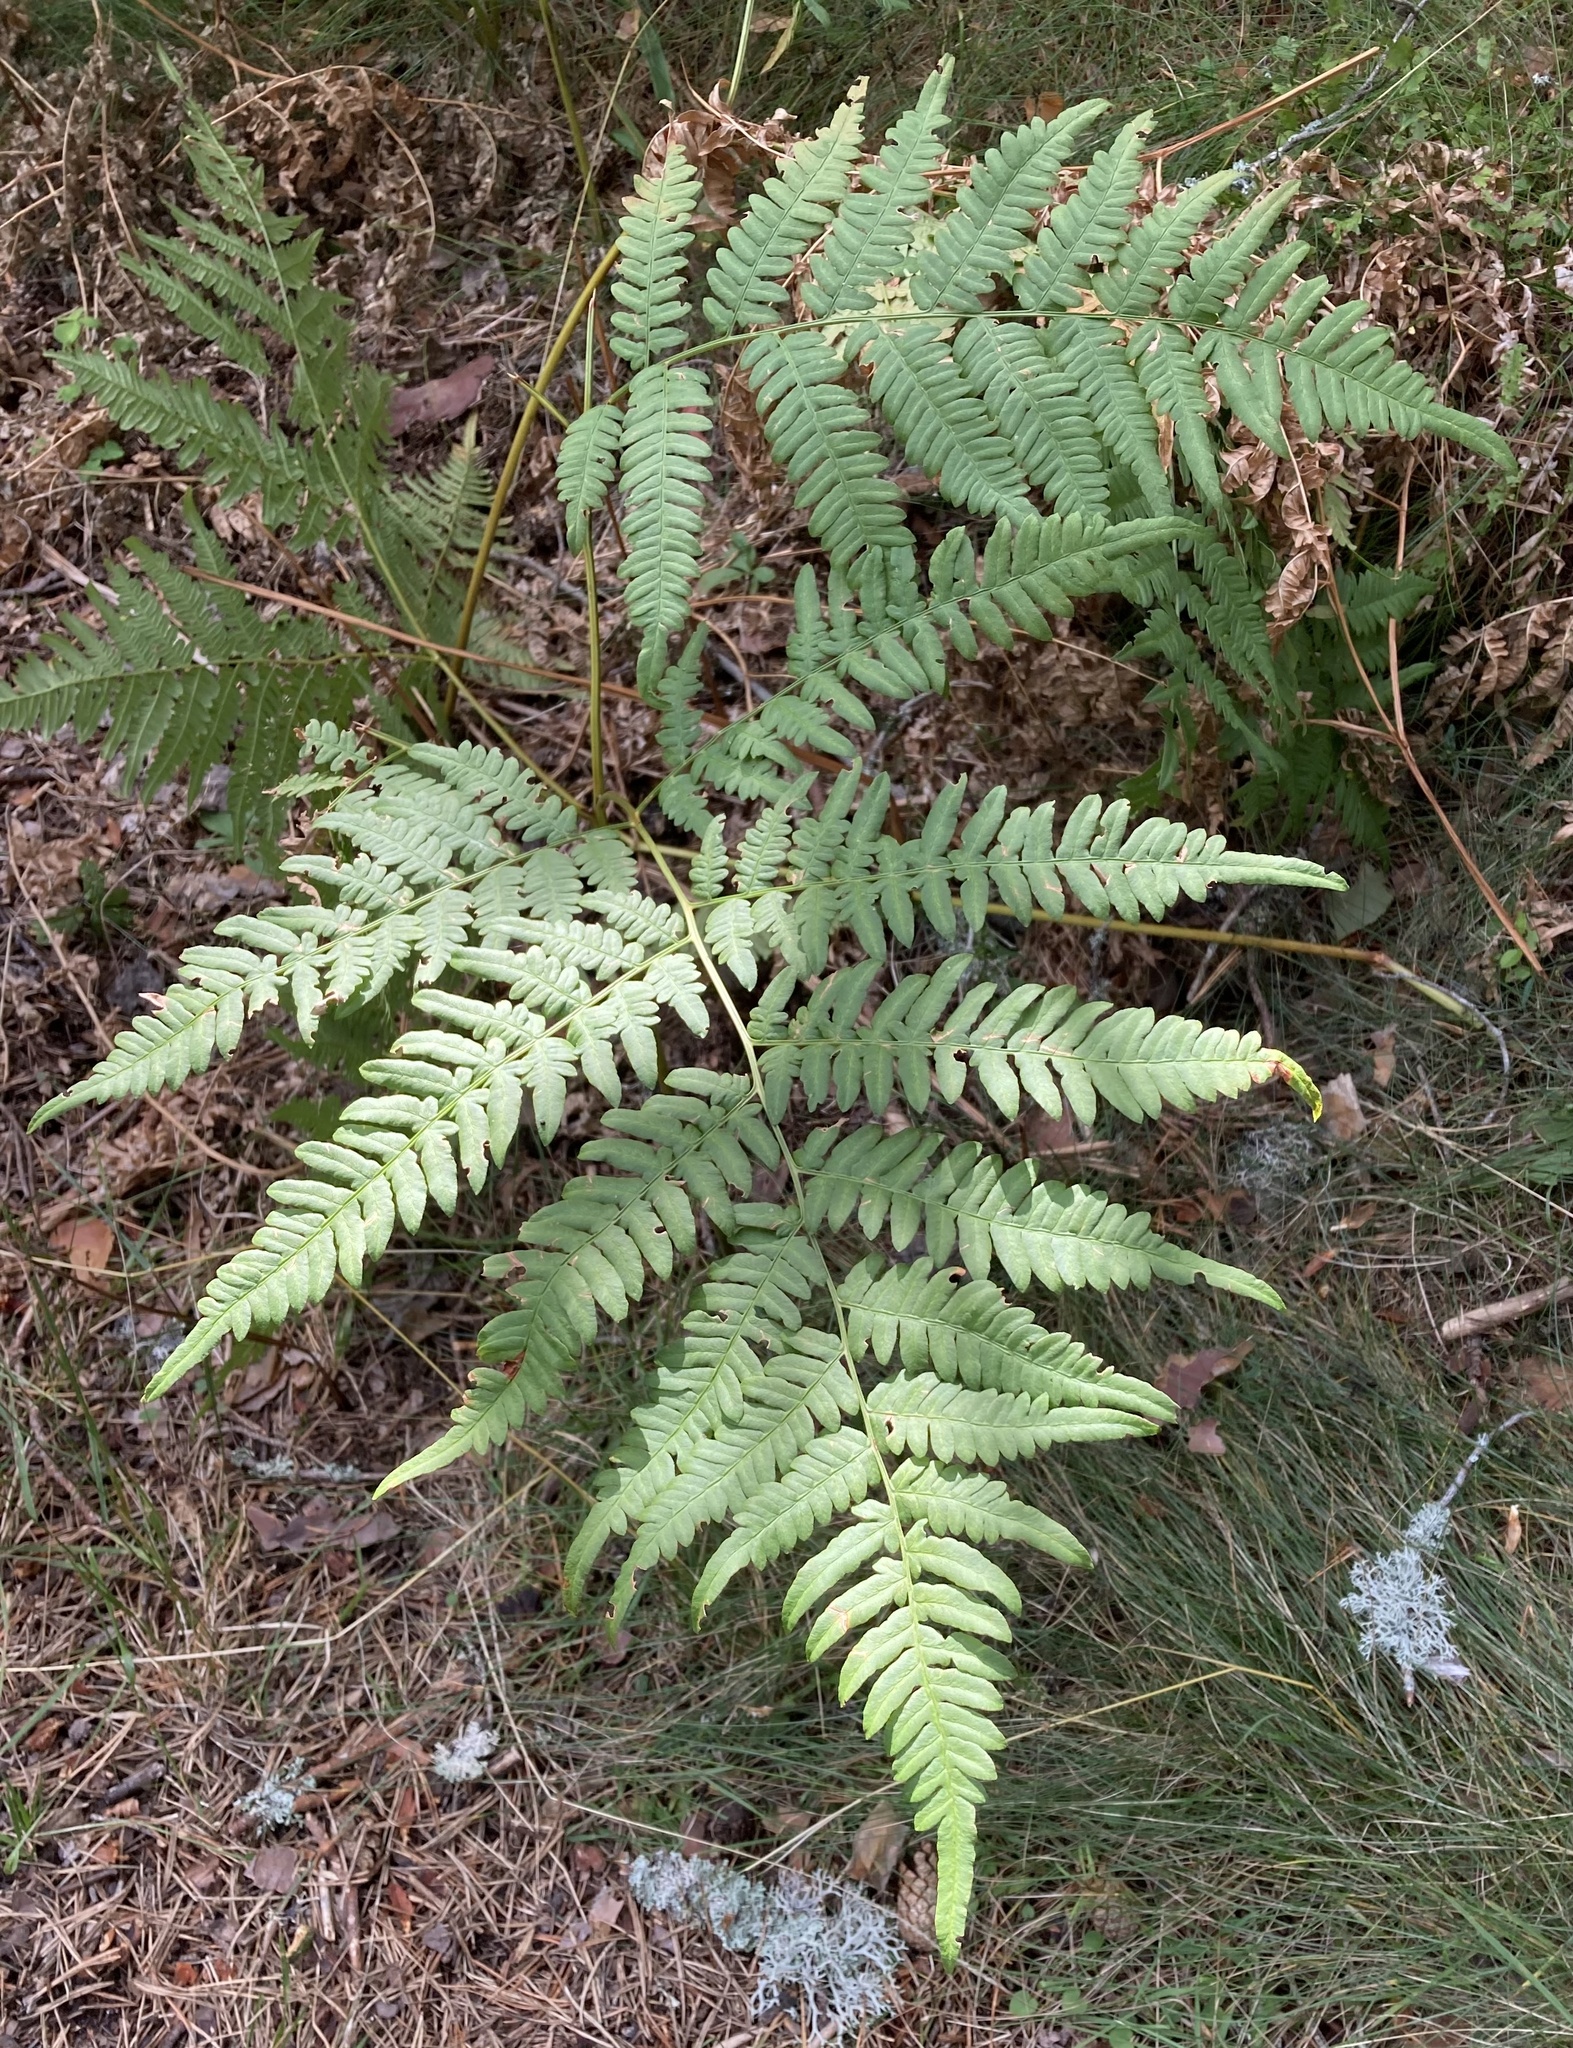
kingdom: Plantae
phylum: Tracheophyta
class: Polypodiopsida
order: Polypodiales
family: Dennstaedtiaceae
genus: Pteridium
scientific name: Pteridium aquilinum
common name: Bracken
